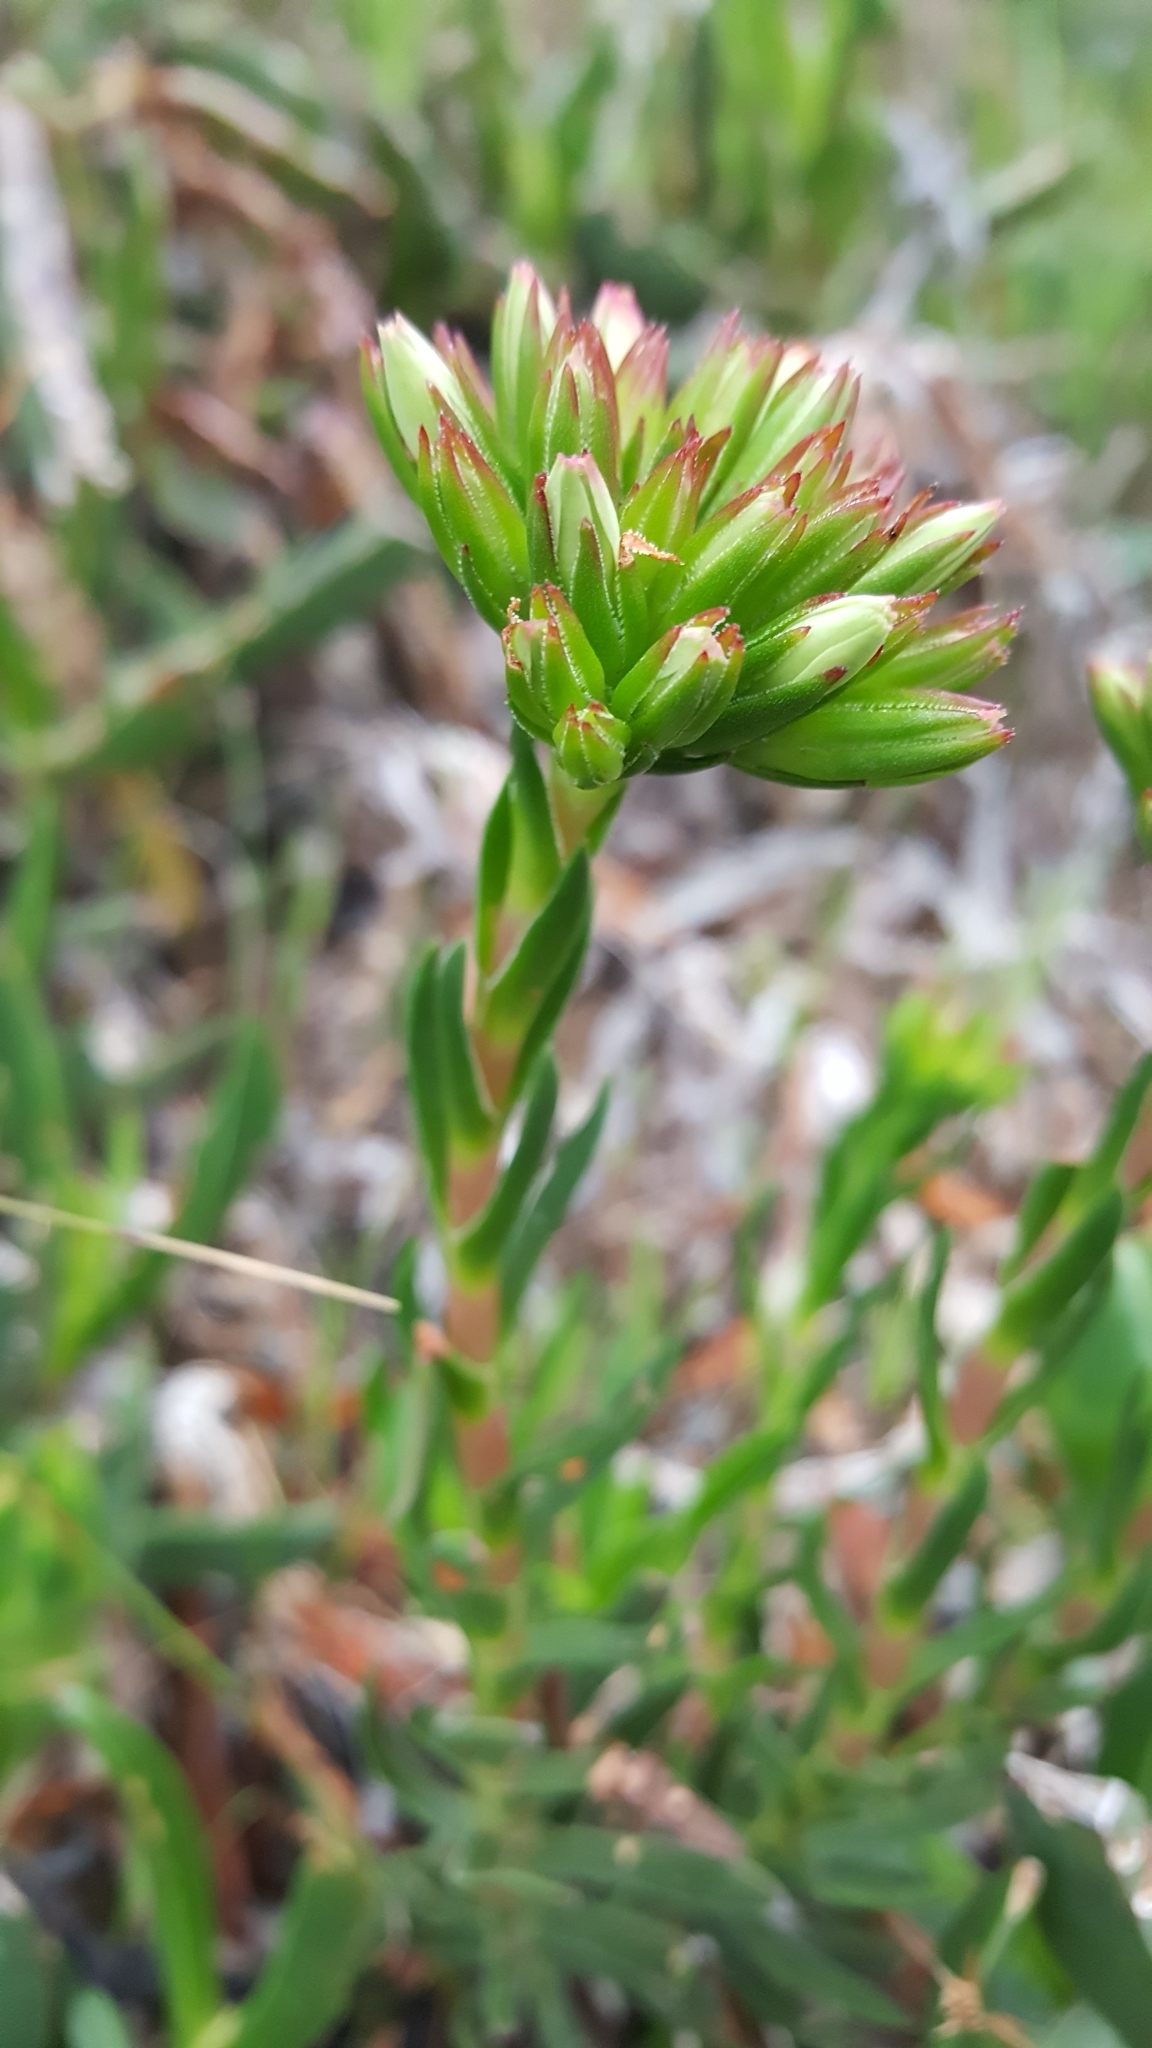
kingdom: Plantae
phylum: Tracheophyta
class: Magnoliopsida
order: Saxifragales
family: Crassulaceae
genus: Crassula
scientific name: Crassula fascicularis
